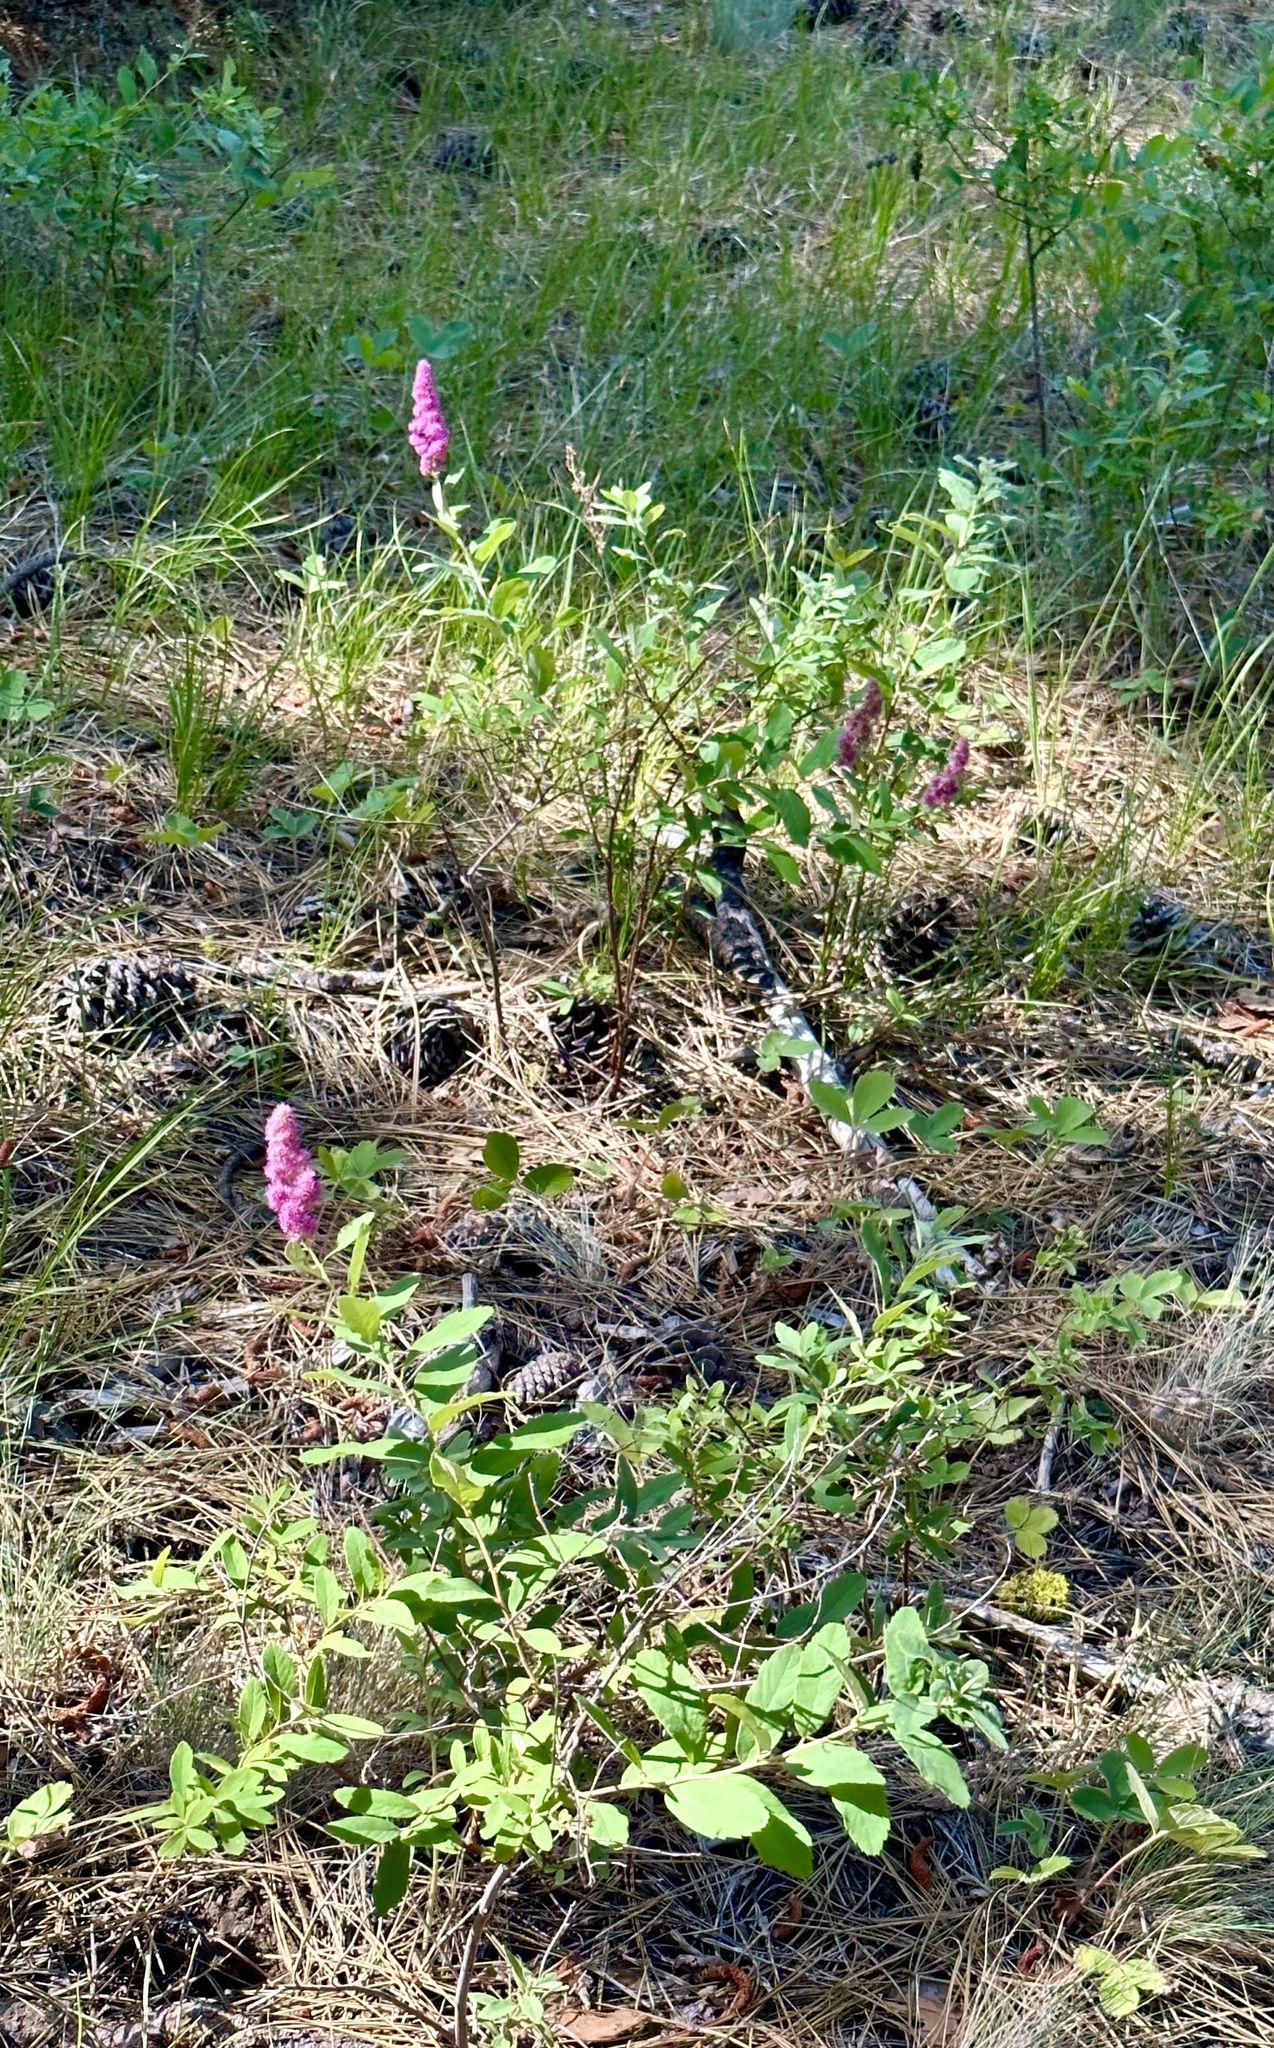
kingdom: Plantae
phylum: Tracheophyta
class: Magnoliopsida
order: Rosales
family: Rosaceae
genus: Spiraea
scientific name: Spiraea douglasii
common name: Steeplebush
